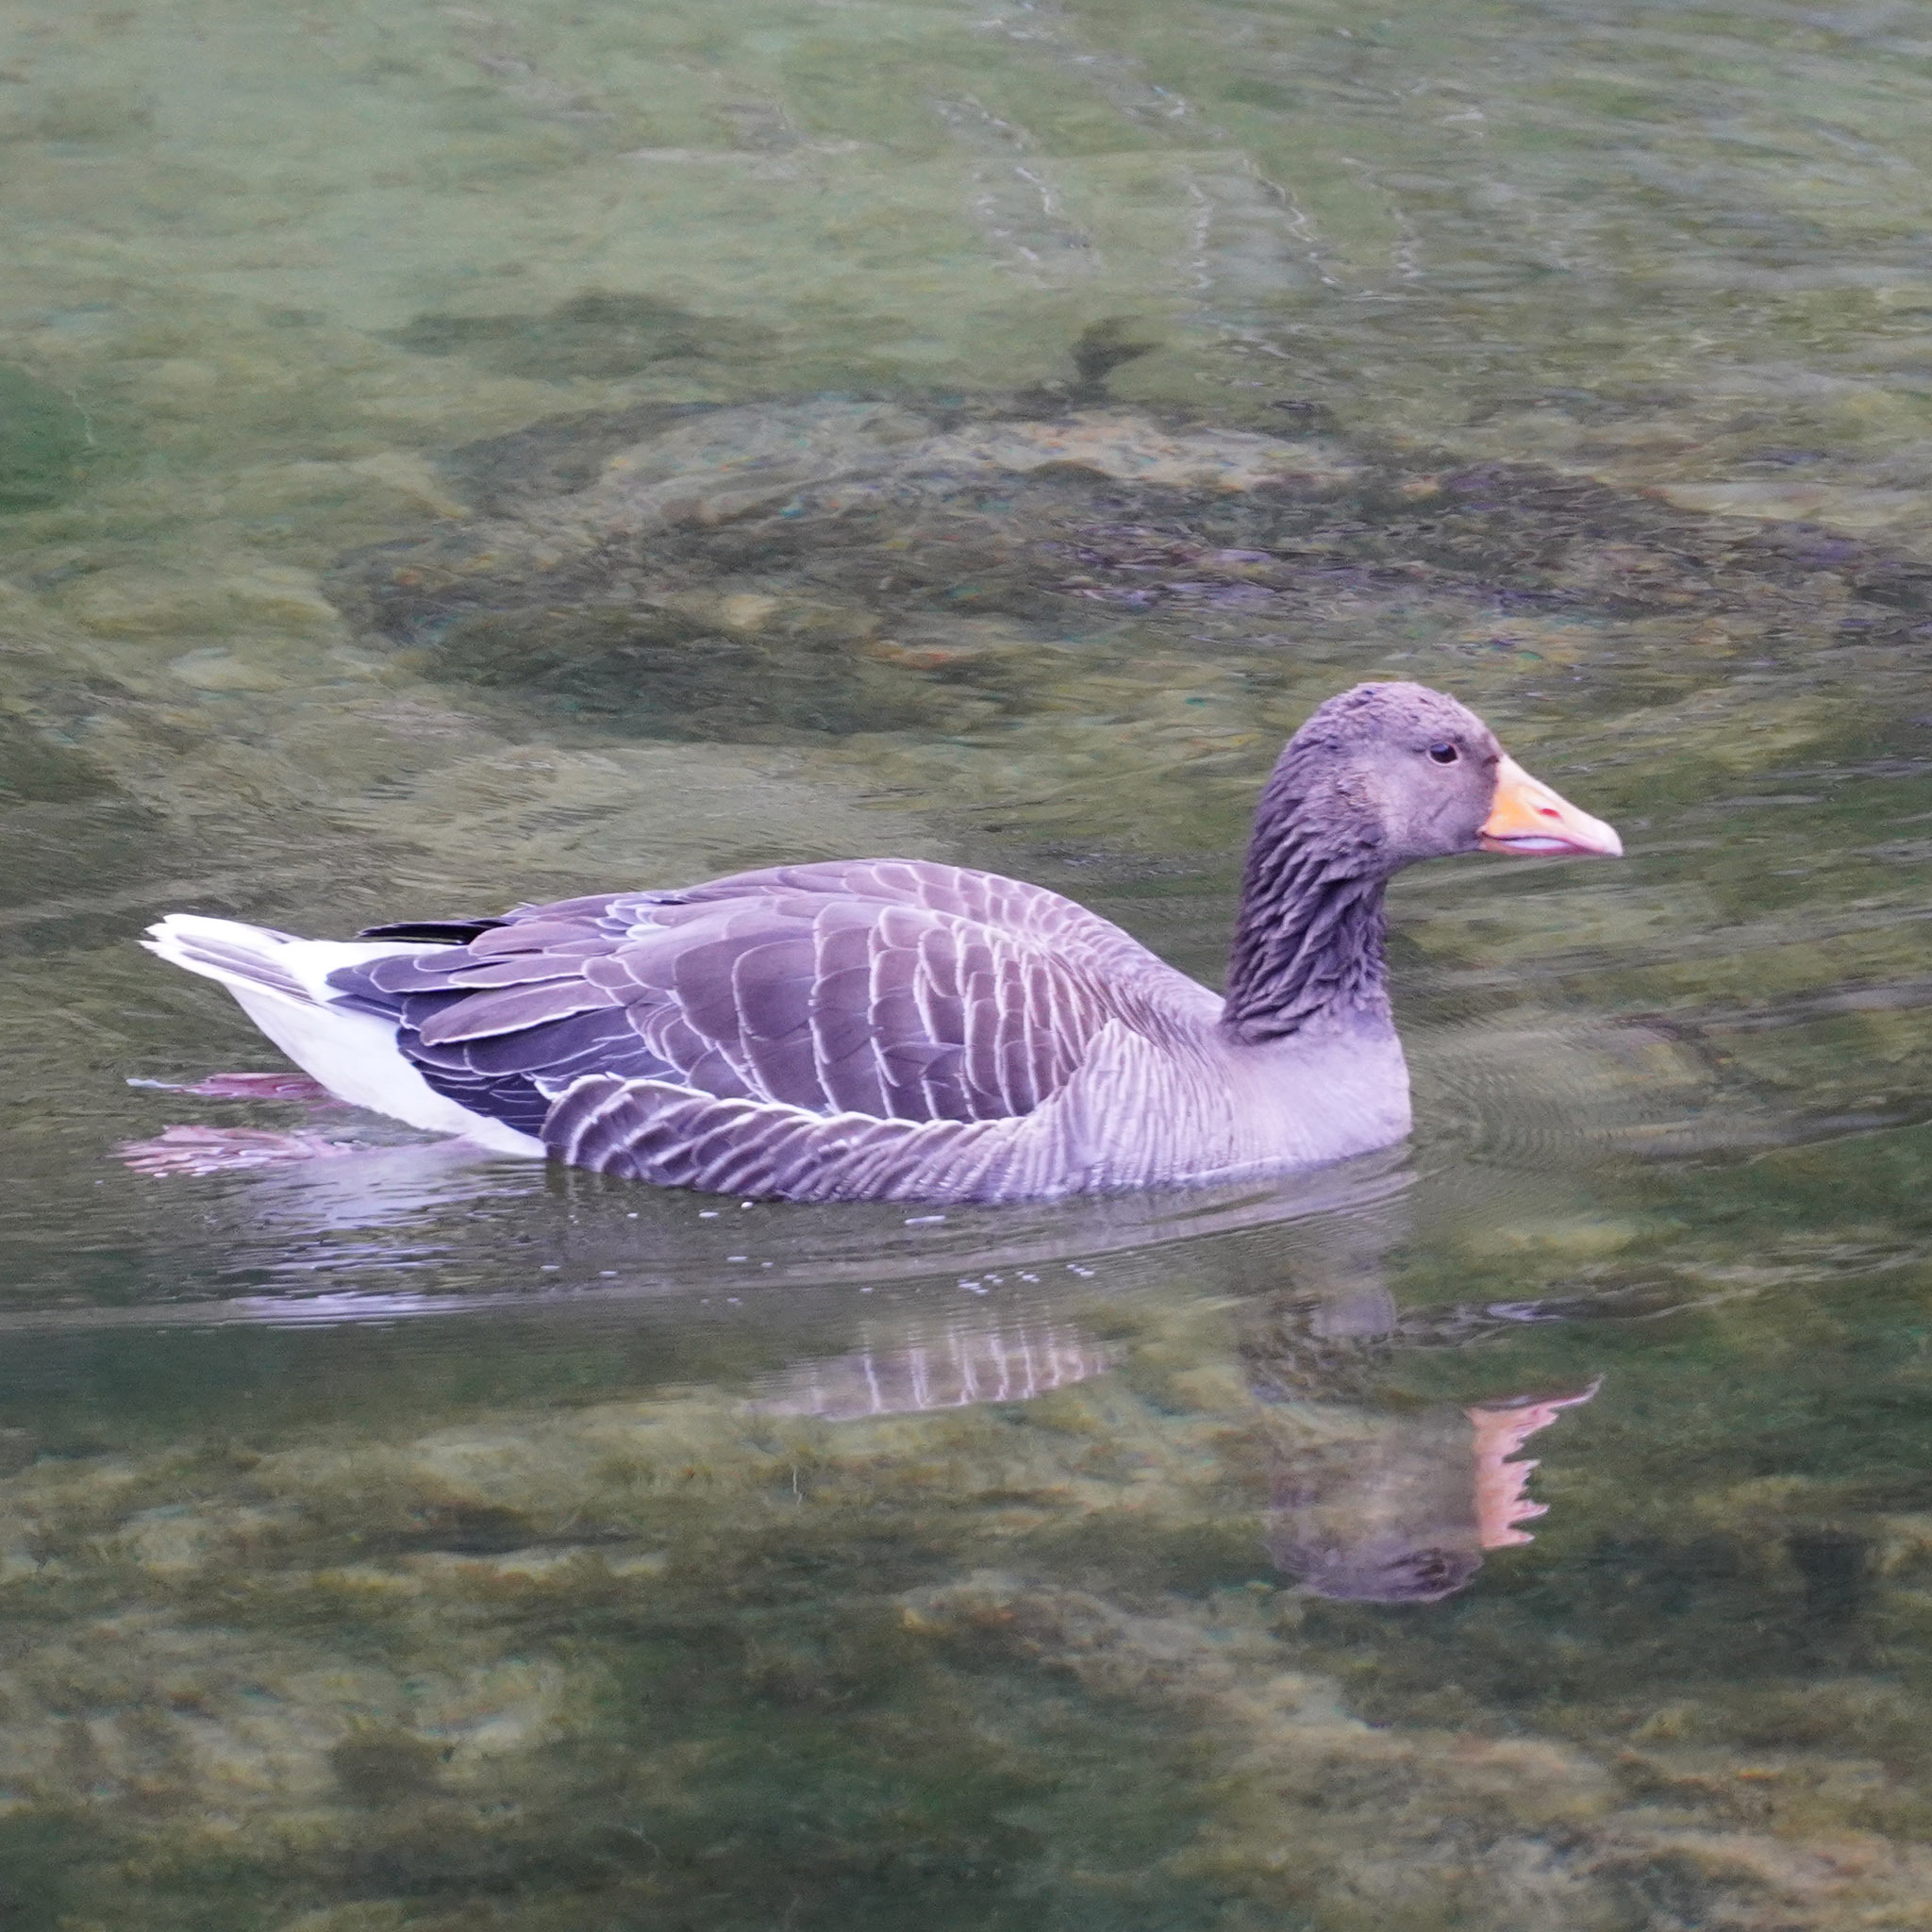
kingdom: Animalia
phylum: Chordata
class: Aves
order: Anseriformes
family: Anatidae
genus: Anser
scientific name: Anser anser
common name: Greylag goose
